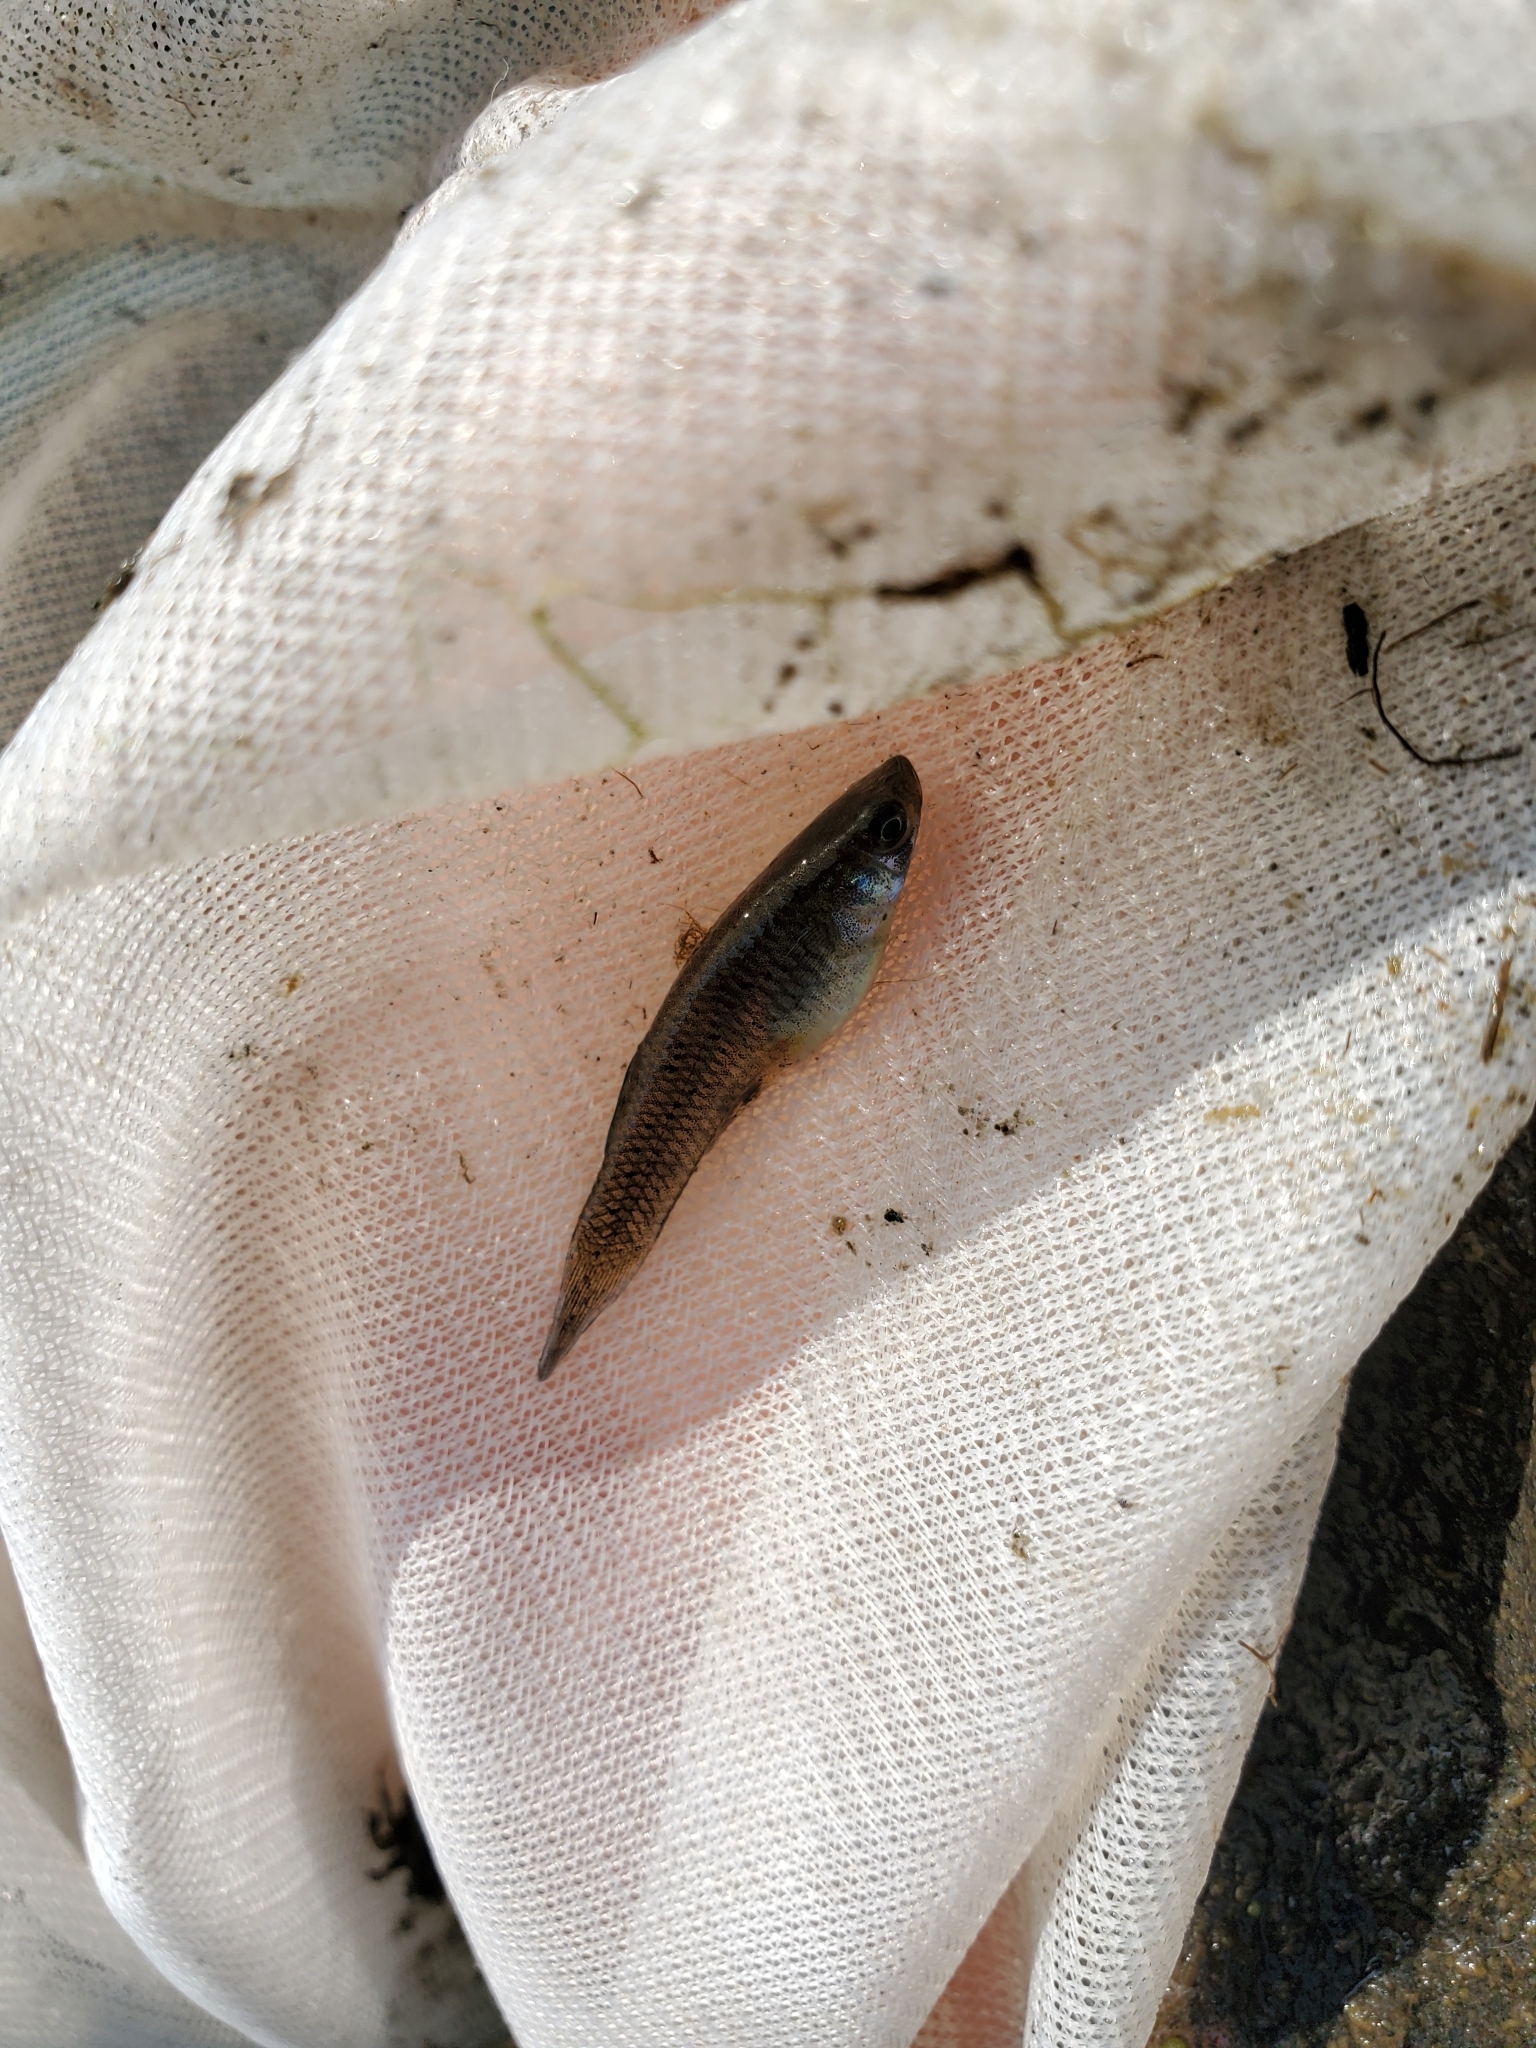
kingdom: Animalia
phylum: Chordata
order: Cyprinodontiformes
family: Poeciliidae
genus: Gambusia
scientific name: Gambusia affinis
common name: Mosquitofish
